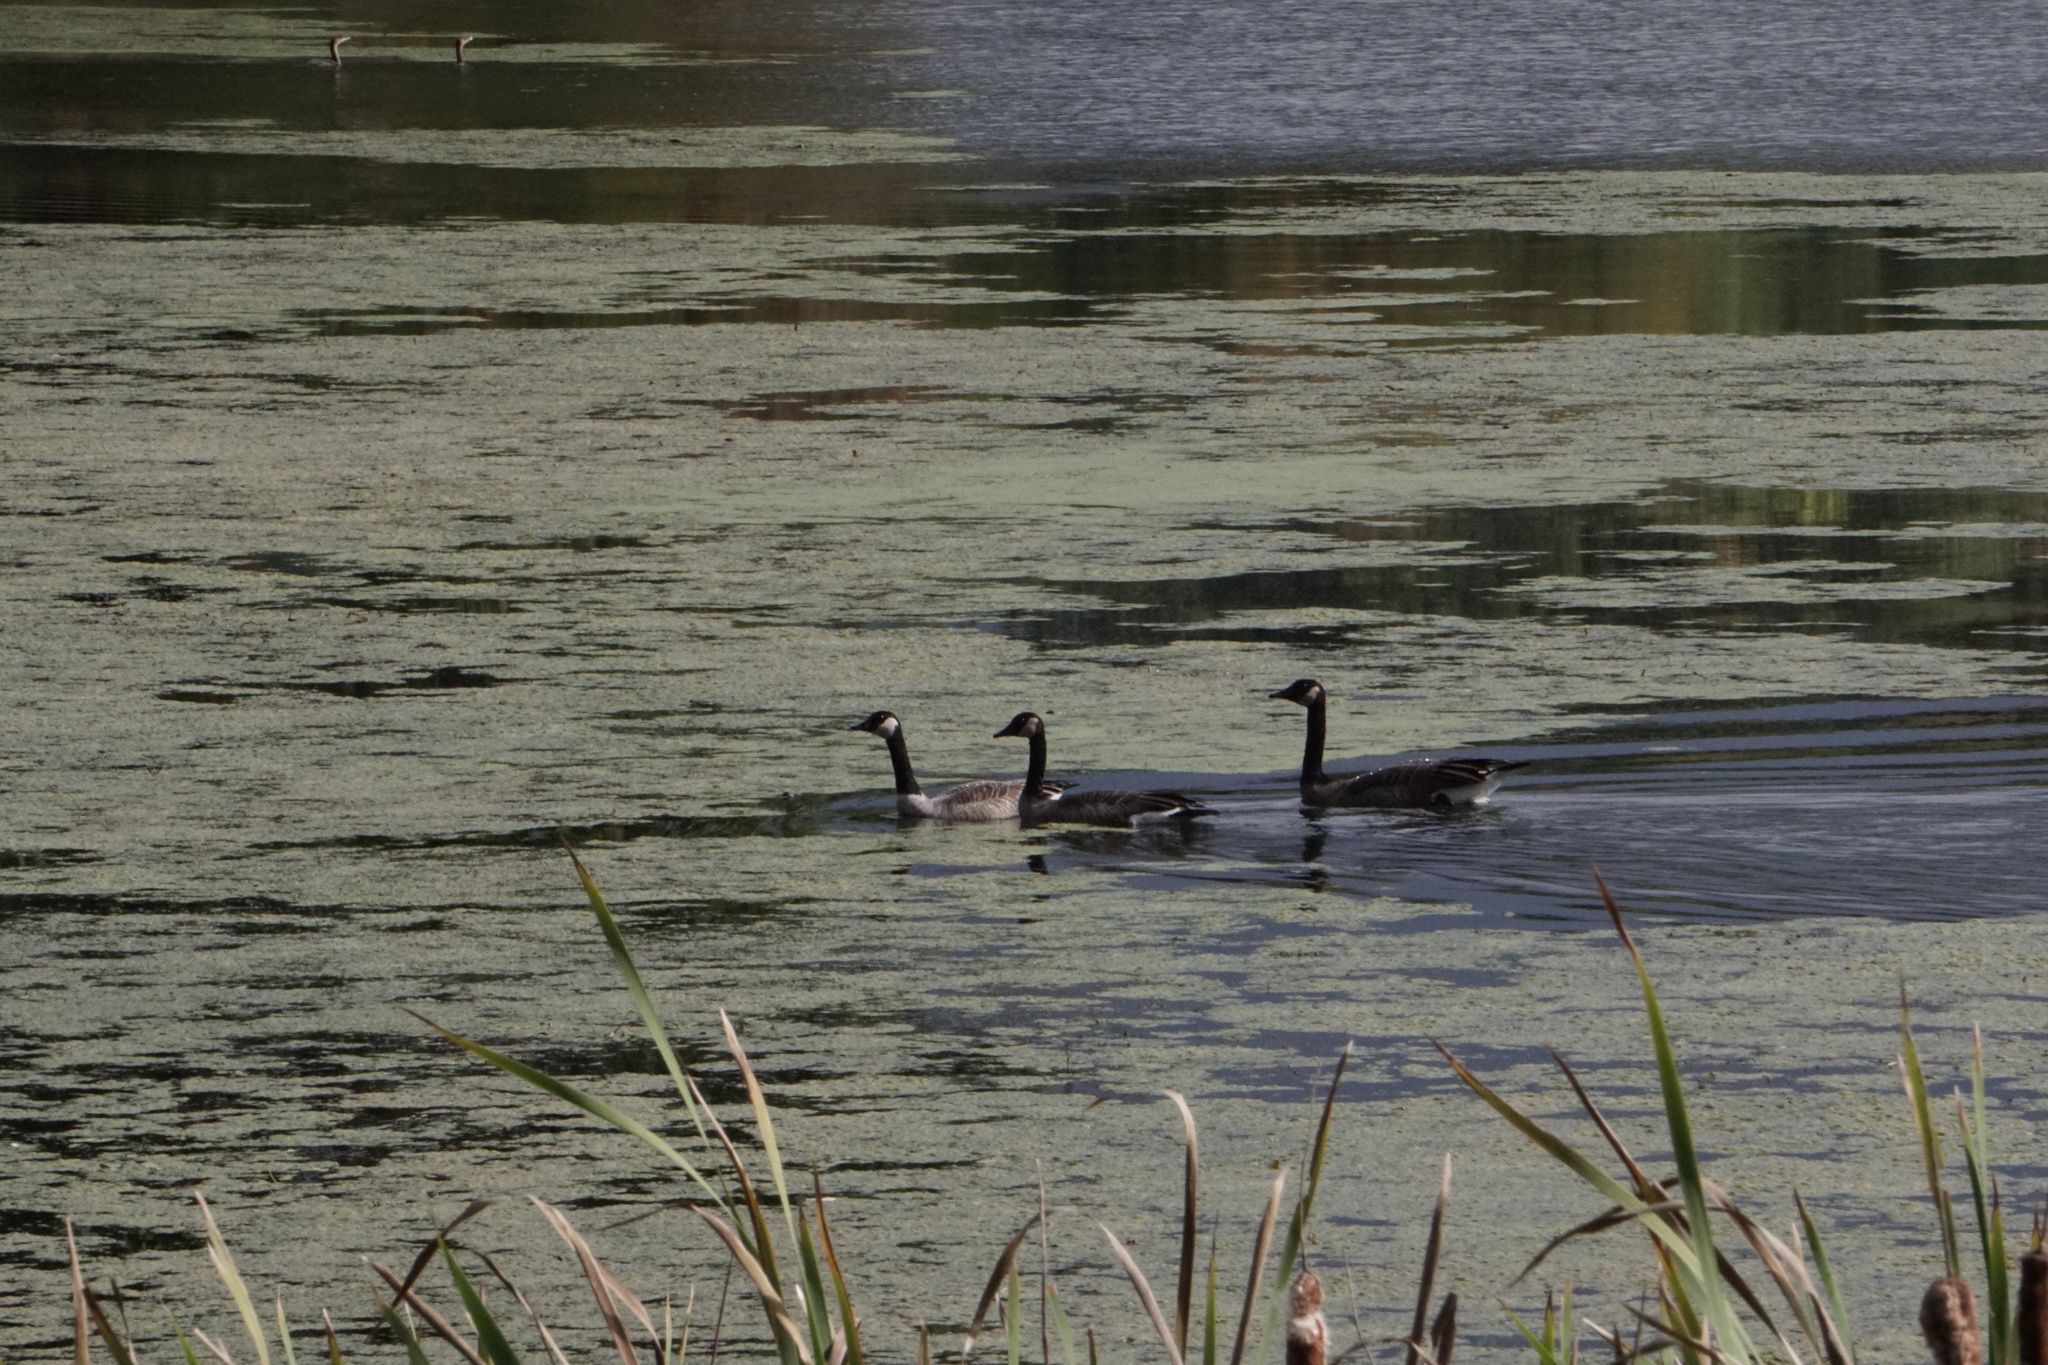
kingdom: Animalia
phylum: Chordata
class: Aves
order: Anseriformes
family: Anatidae
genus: Branta
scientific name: Branta canadensis
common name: Canada goose
